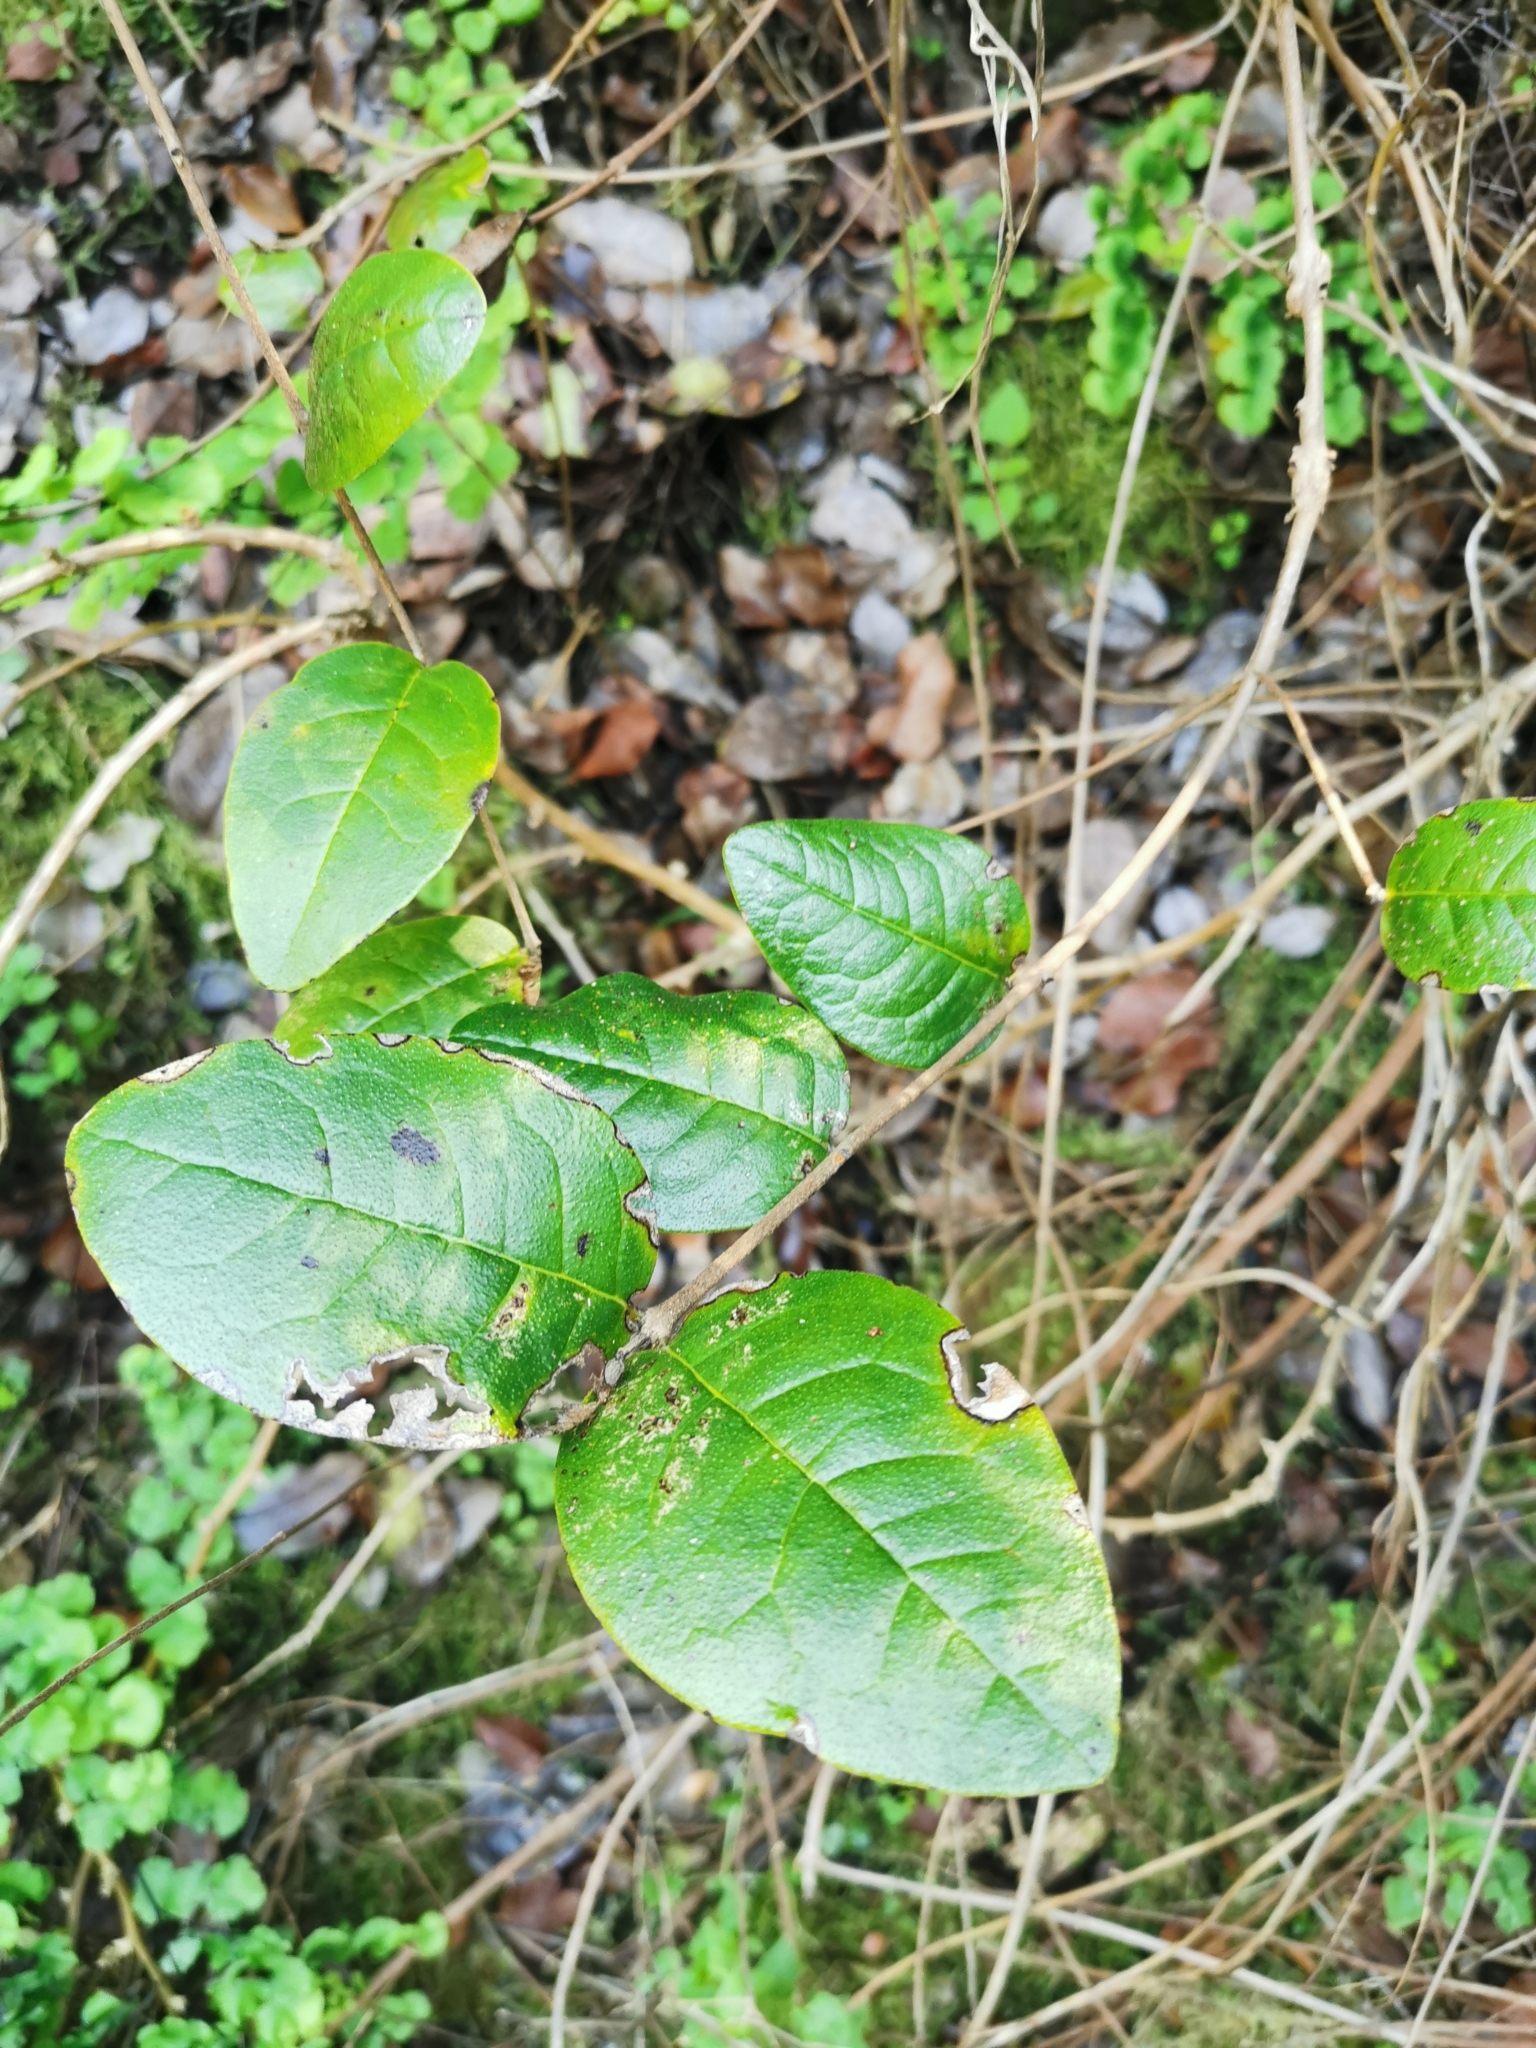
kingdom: Plantae
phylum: Tracheophyta
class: Magnoliopsida
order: Laurales
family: Monimiaceae
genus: Peumus
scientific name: Peumus boldus
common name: Boldo
